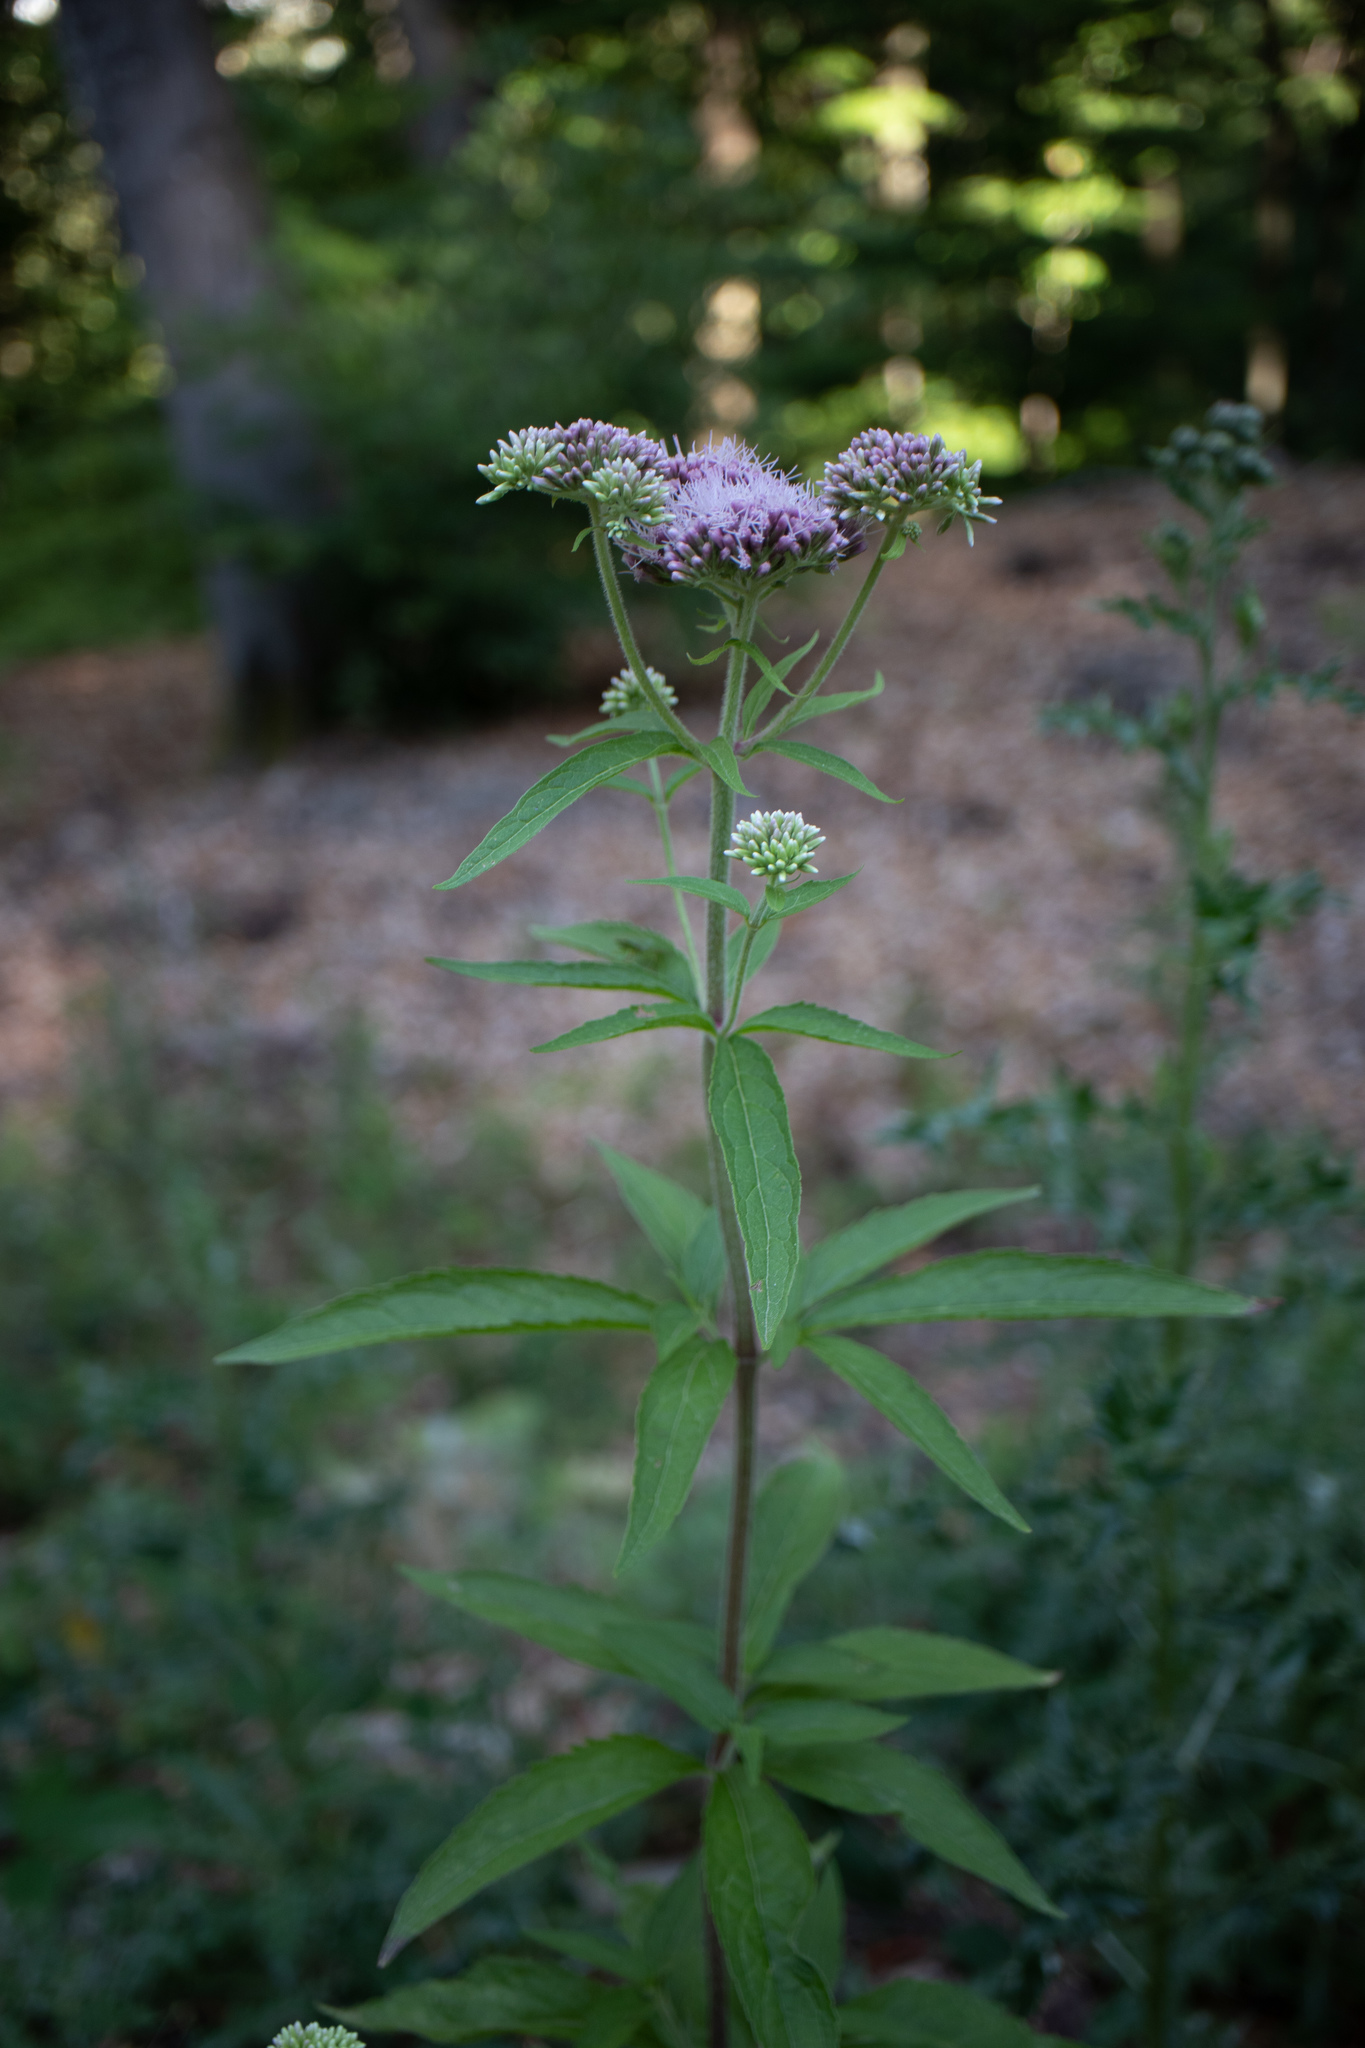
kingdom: Plantae
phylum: Tracheophyta
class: Magnoliopsida
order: Asterales
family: Asteraceae
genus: Eupatorium
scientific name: Eupatorium cannabinum
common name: Hemp-agrimony
